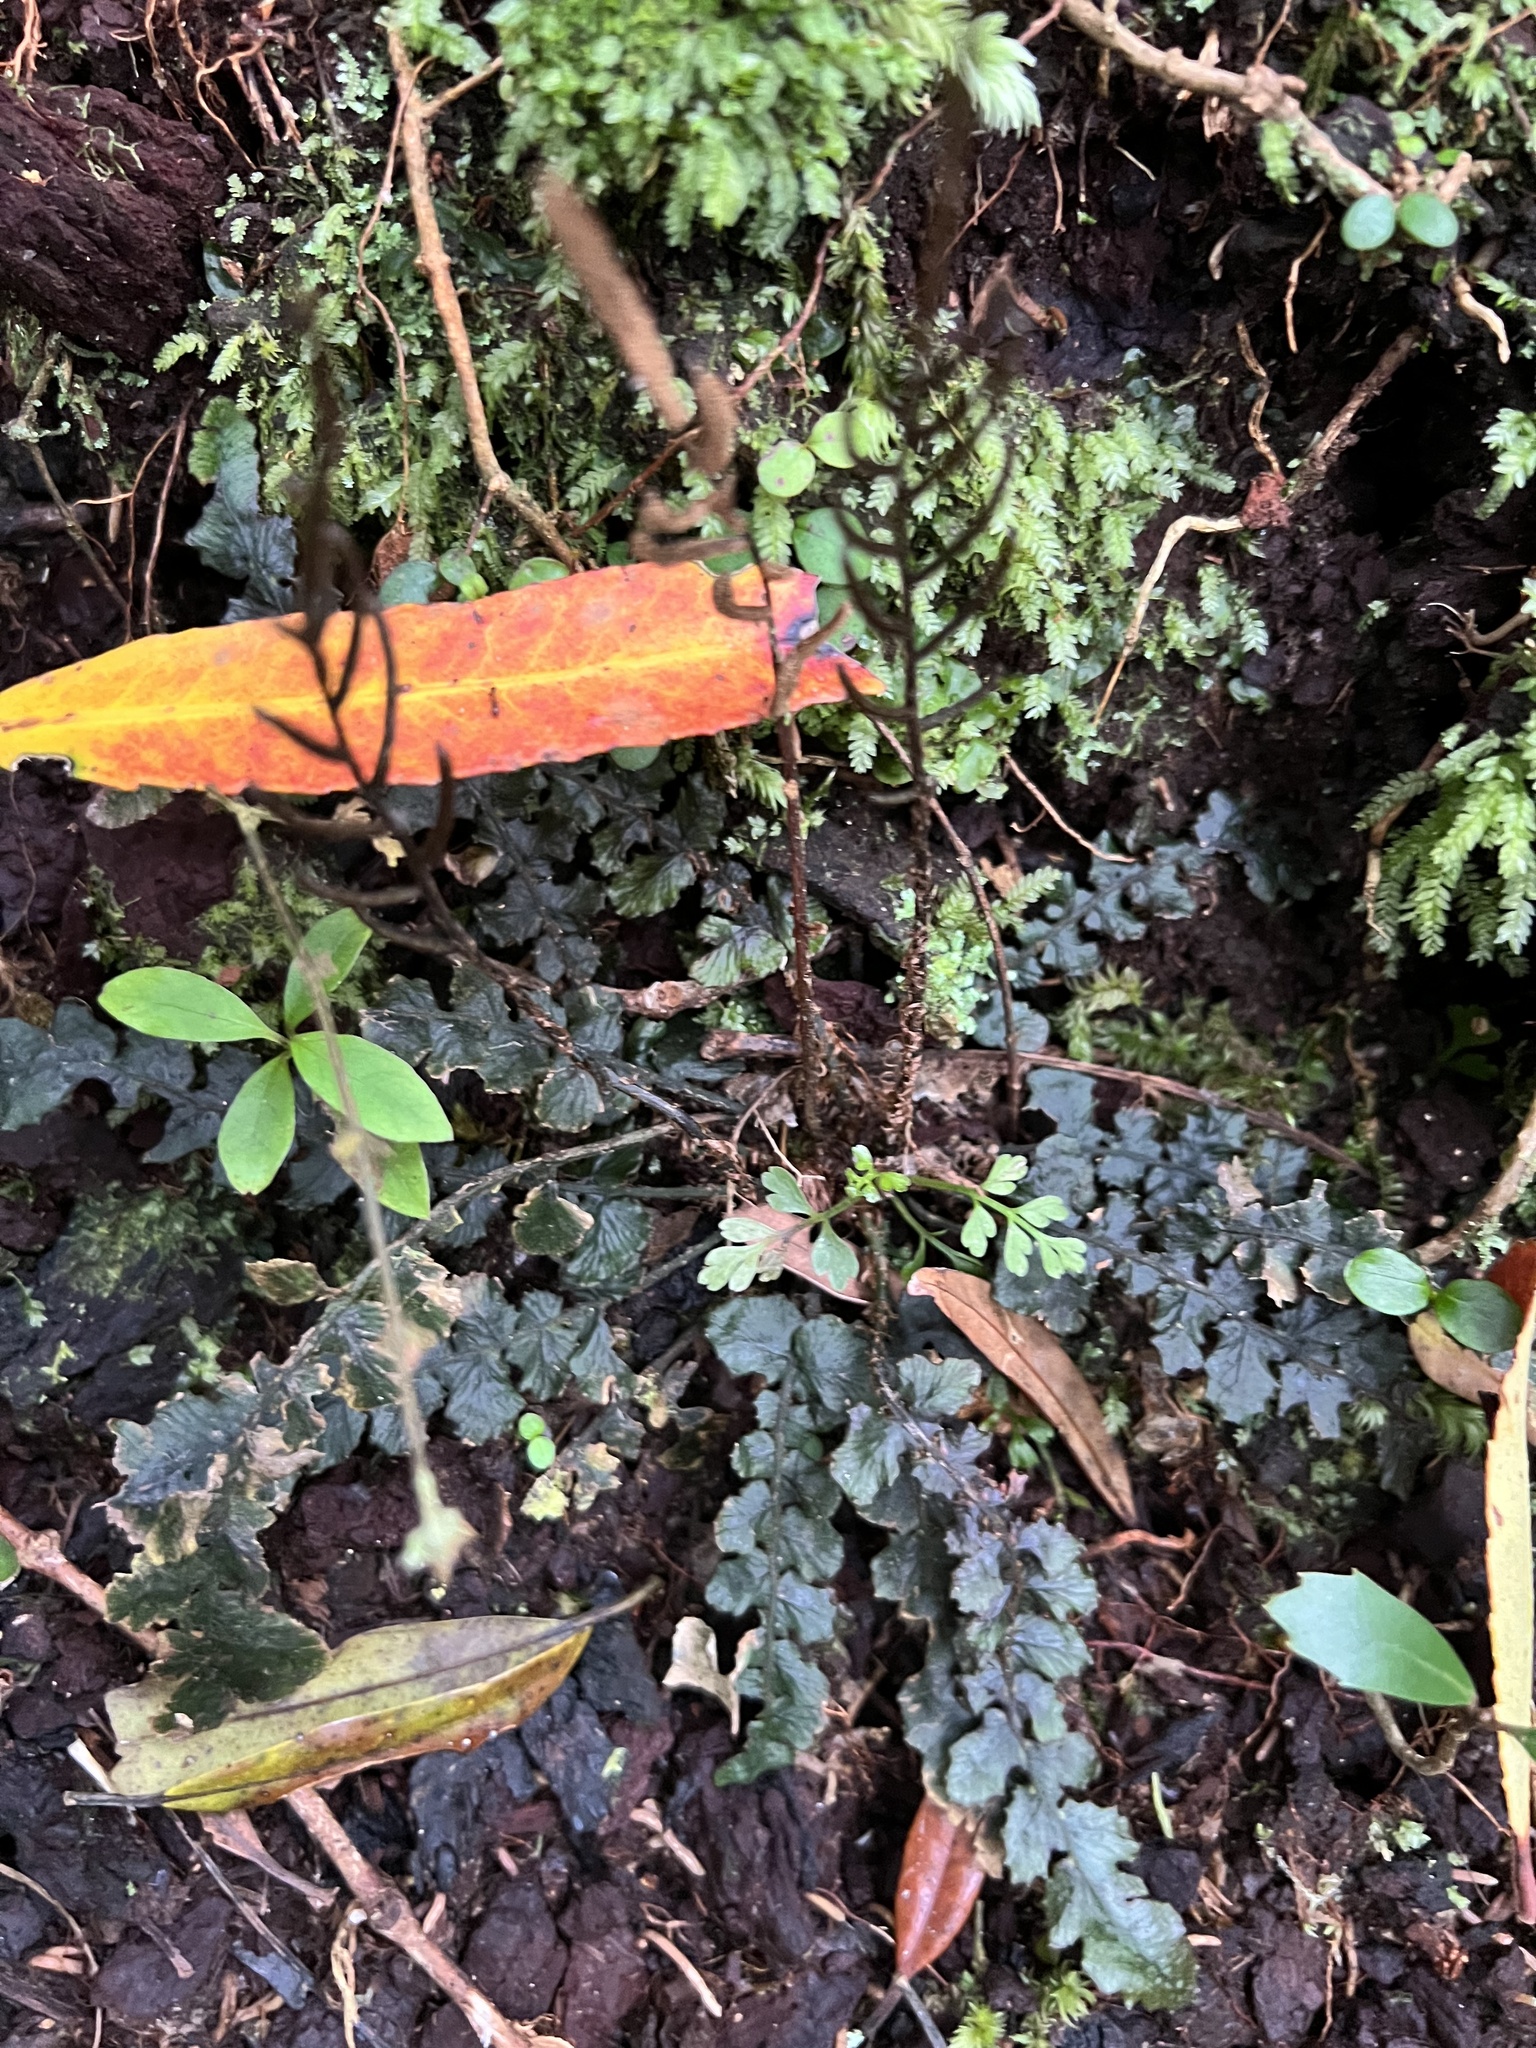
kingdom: Plantae
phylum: Tracheophyta
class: Polypodiopsida
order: Polypodiales
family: Blechnaceae
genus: Cranfillia
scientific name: Cranfillia nigra
